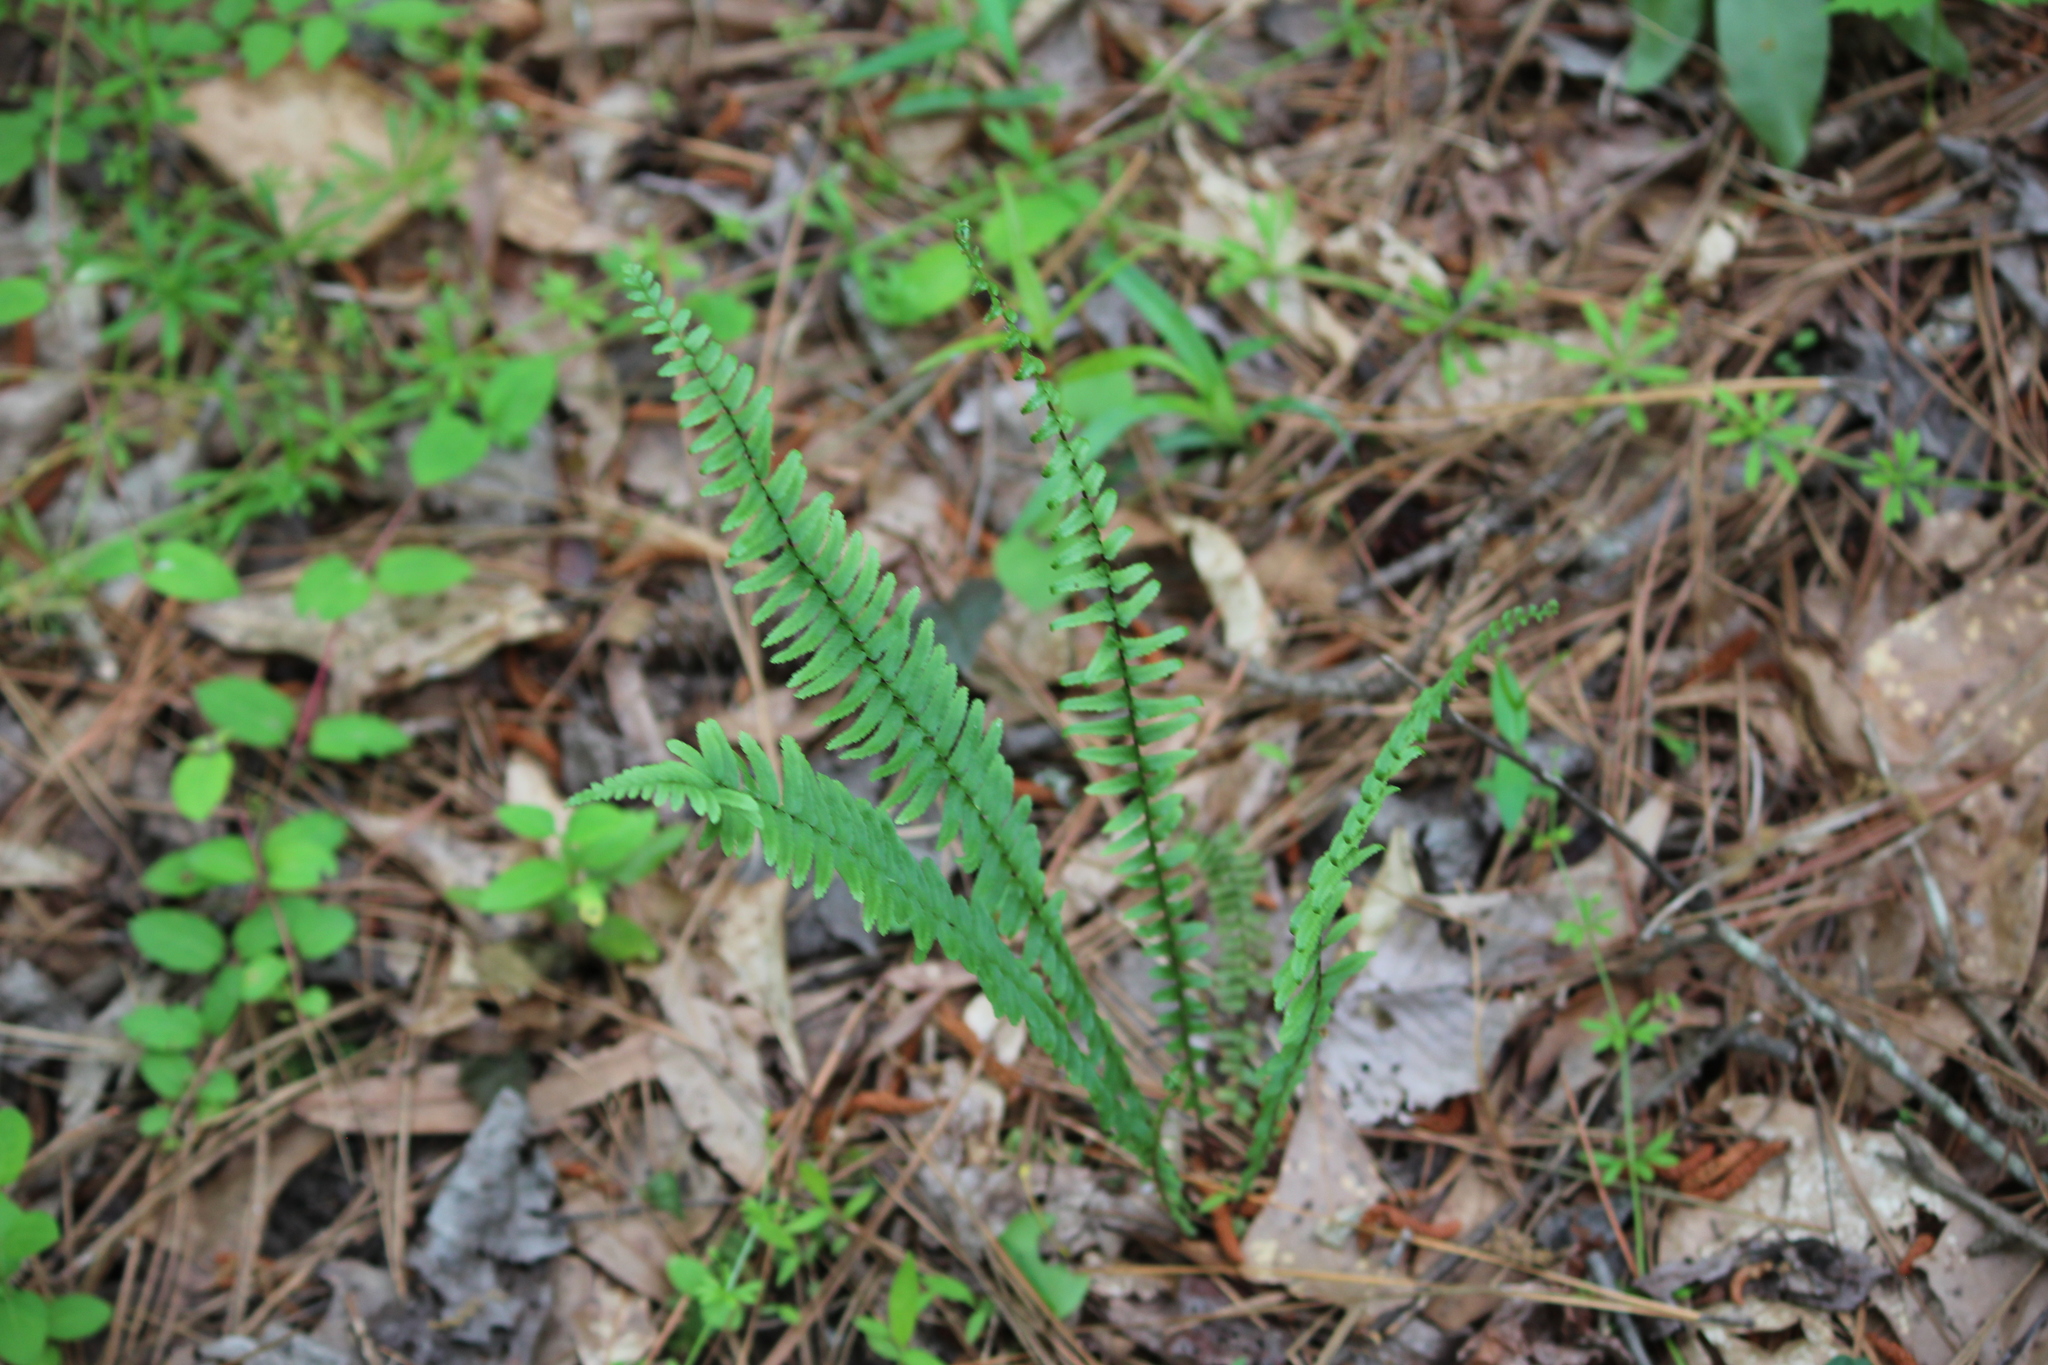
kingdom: Plantae
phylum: Tracheophyta
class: Polypodiopsida
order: Polypodiales
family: Aspleniaceae
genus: Asplenium
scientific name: Asplenium platyneuron
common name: Ebony spleenwort
